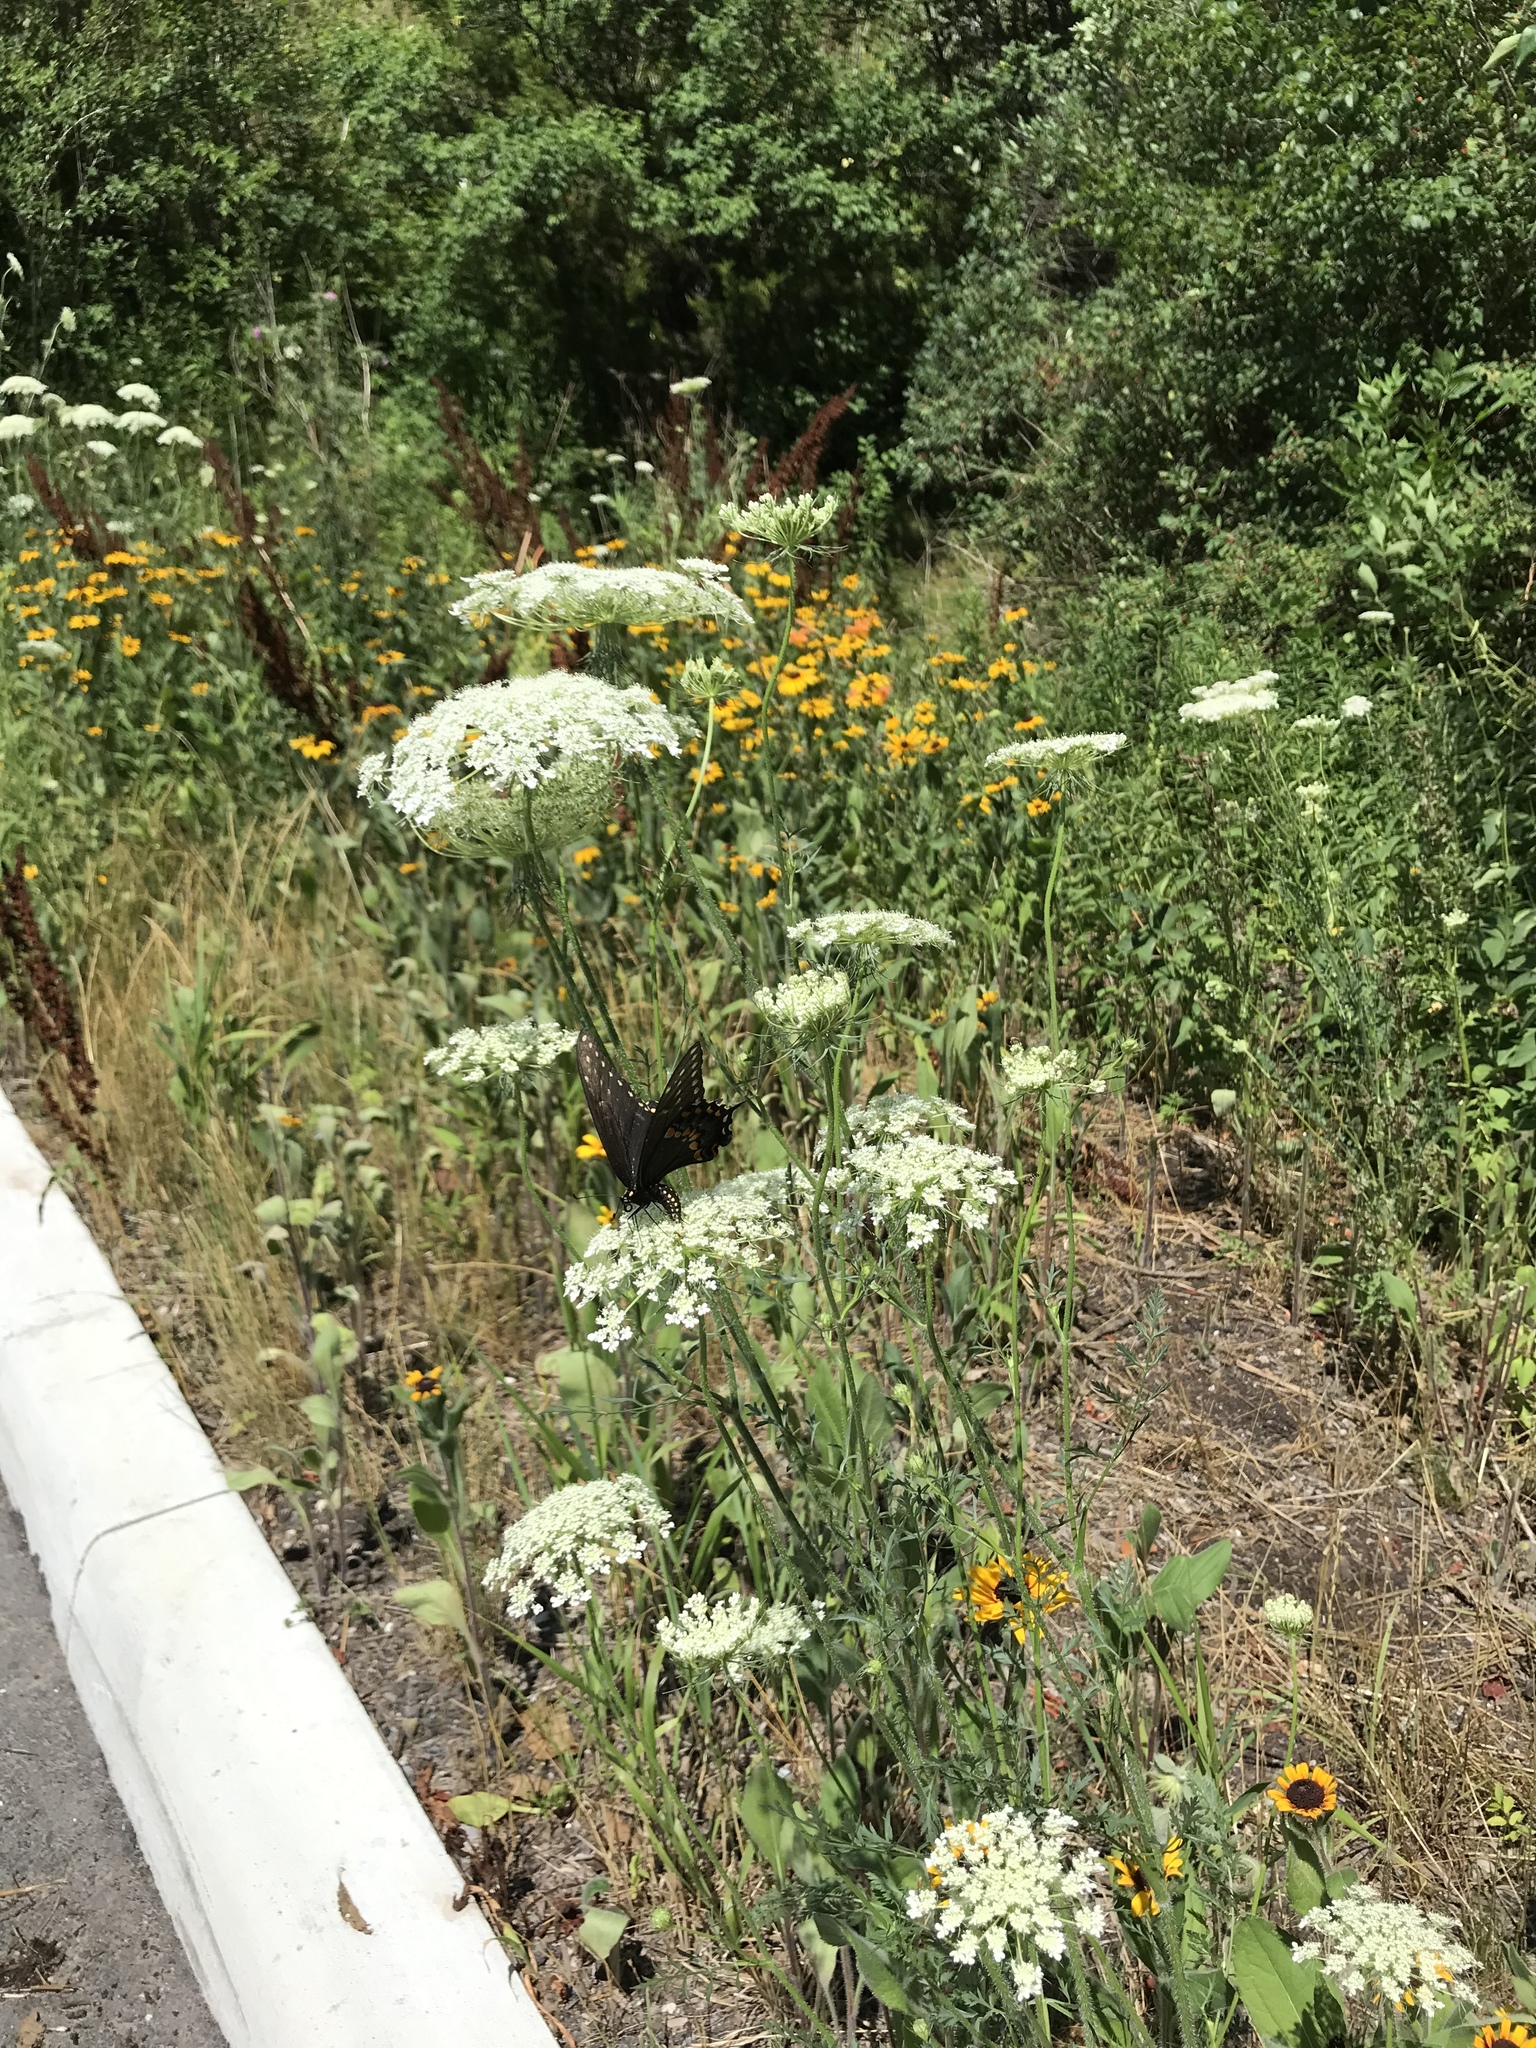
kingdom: Animalia
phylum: Arthropoda
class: Insecta
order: Lepidoptera
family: Papilionidae
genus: Papilio
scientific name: Papilio polyxenes
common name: Black swallowtail
